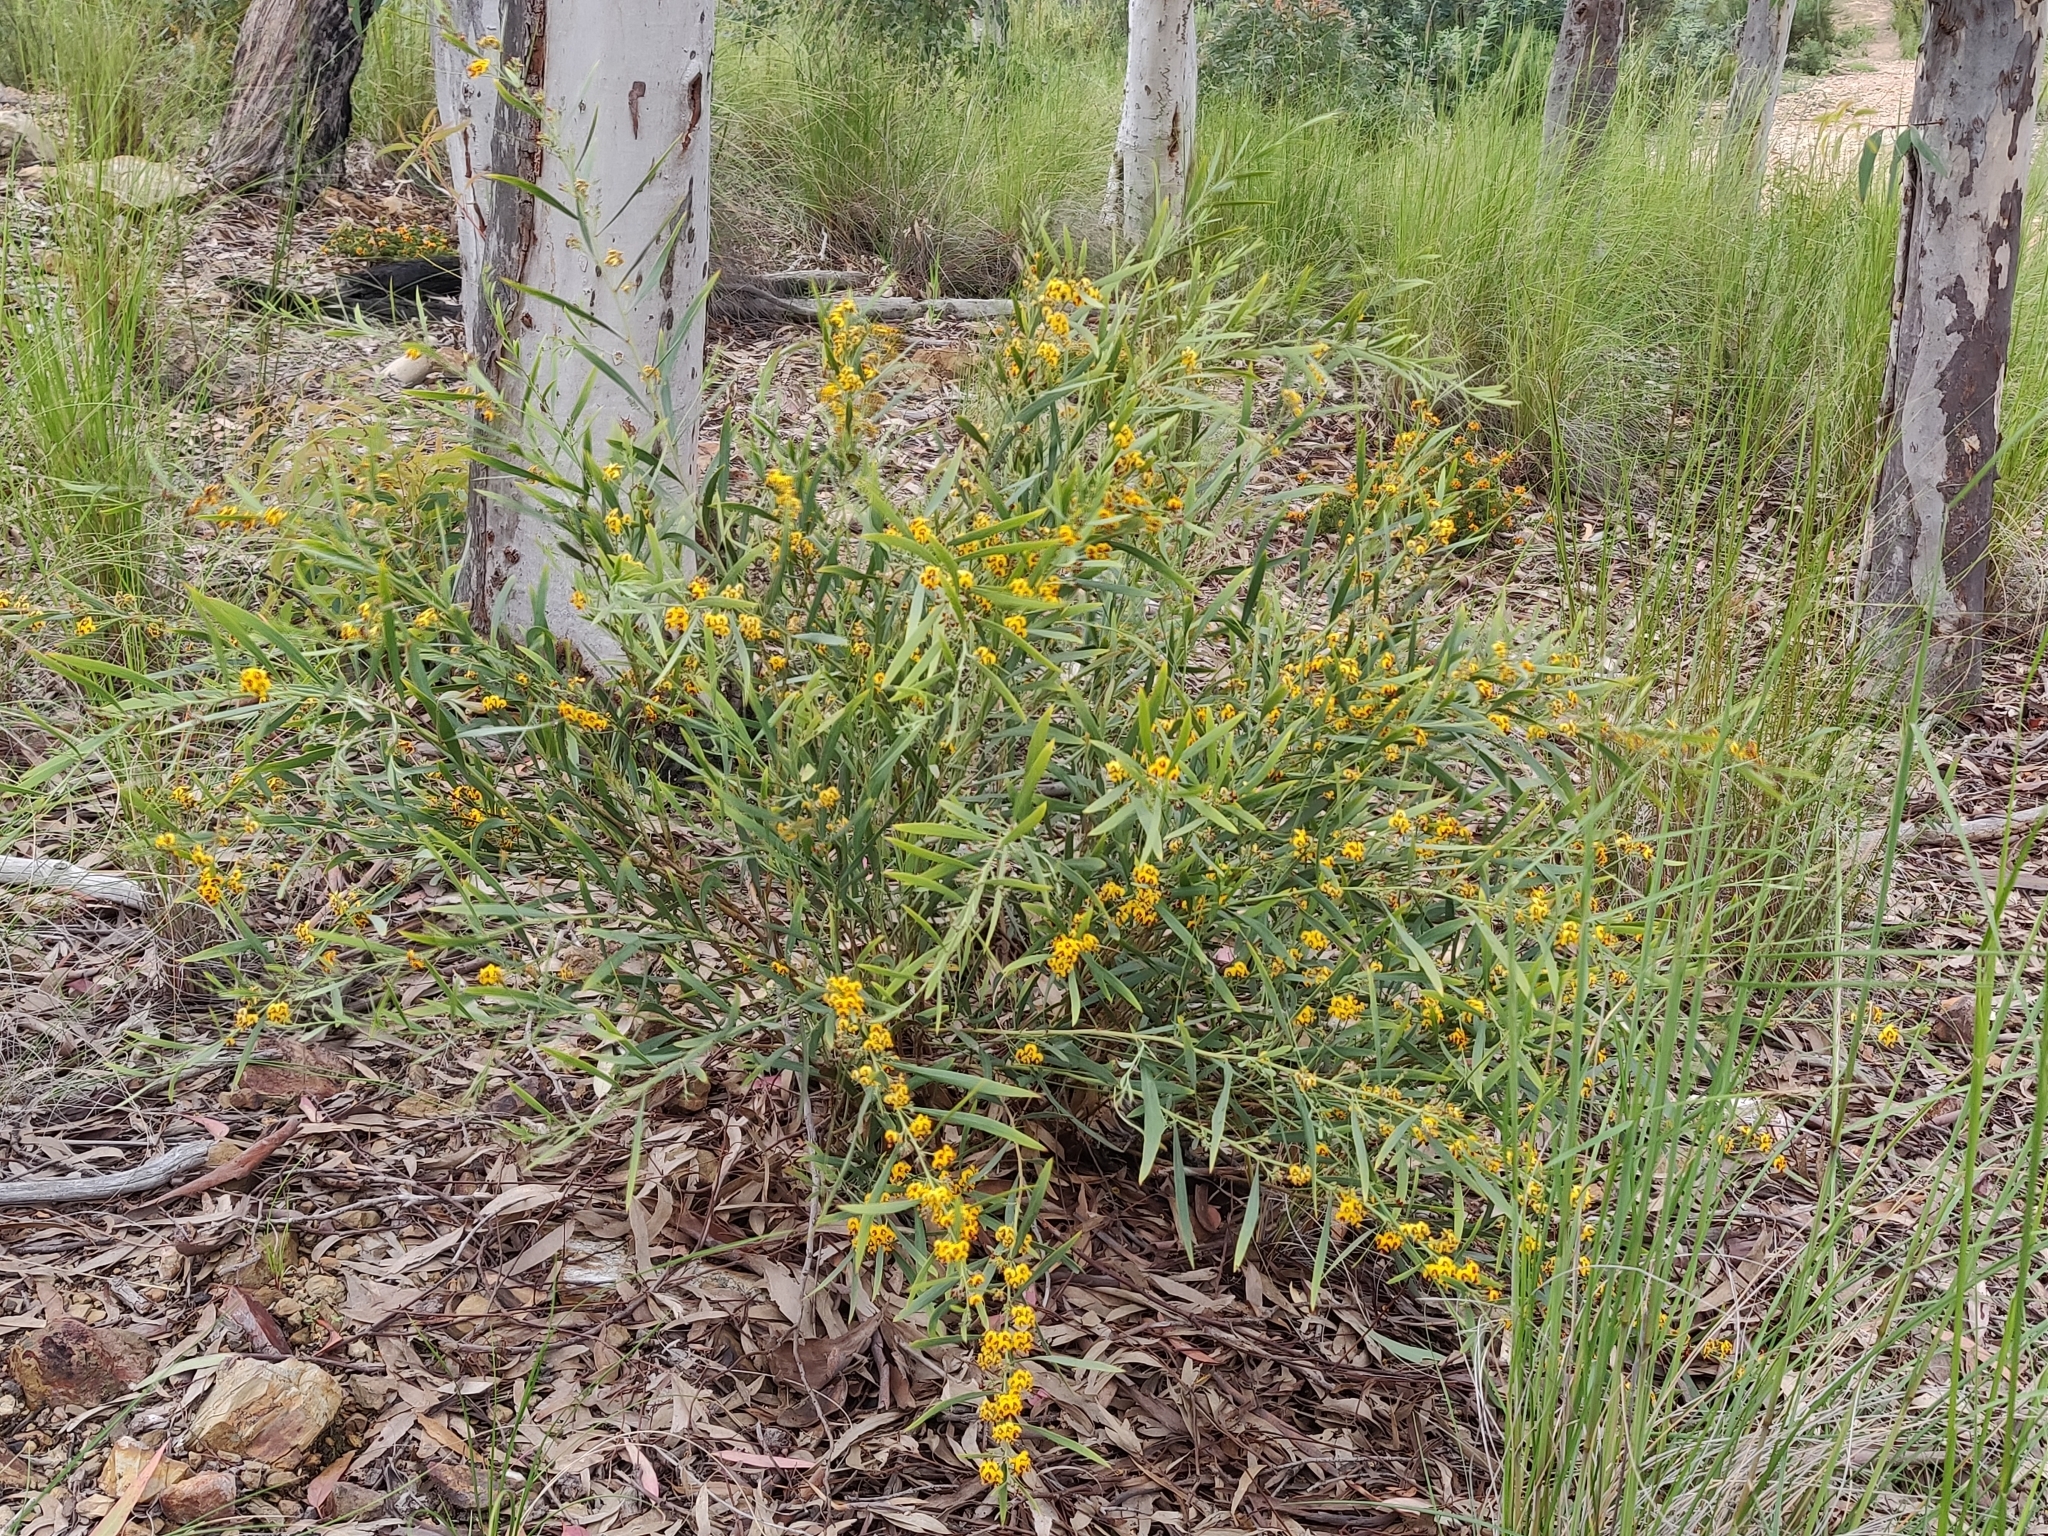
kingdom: Plantae
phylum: Tracheophyta
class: Magnoliopsida
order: Fabales
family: Fabaceae
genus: Daviesia
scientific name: Daviesia mimosoides
